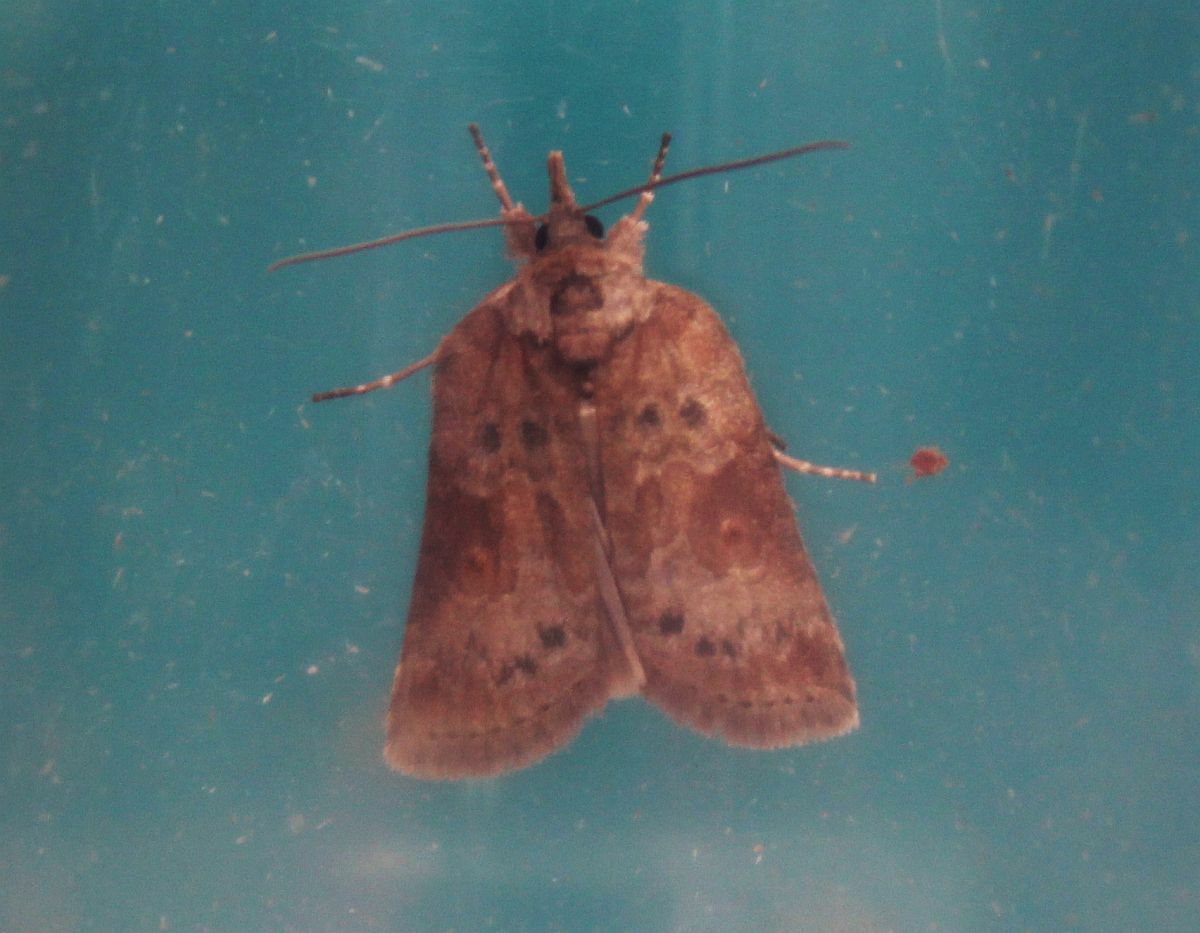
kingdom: Animalia
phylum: Arthropoda
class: Insecta
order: Lepidoptera
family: Nolidae
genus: Nycteola
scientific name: Nycteola revayana
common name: Oak nycteoline
